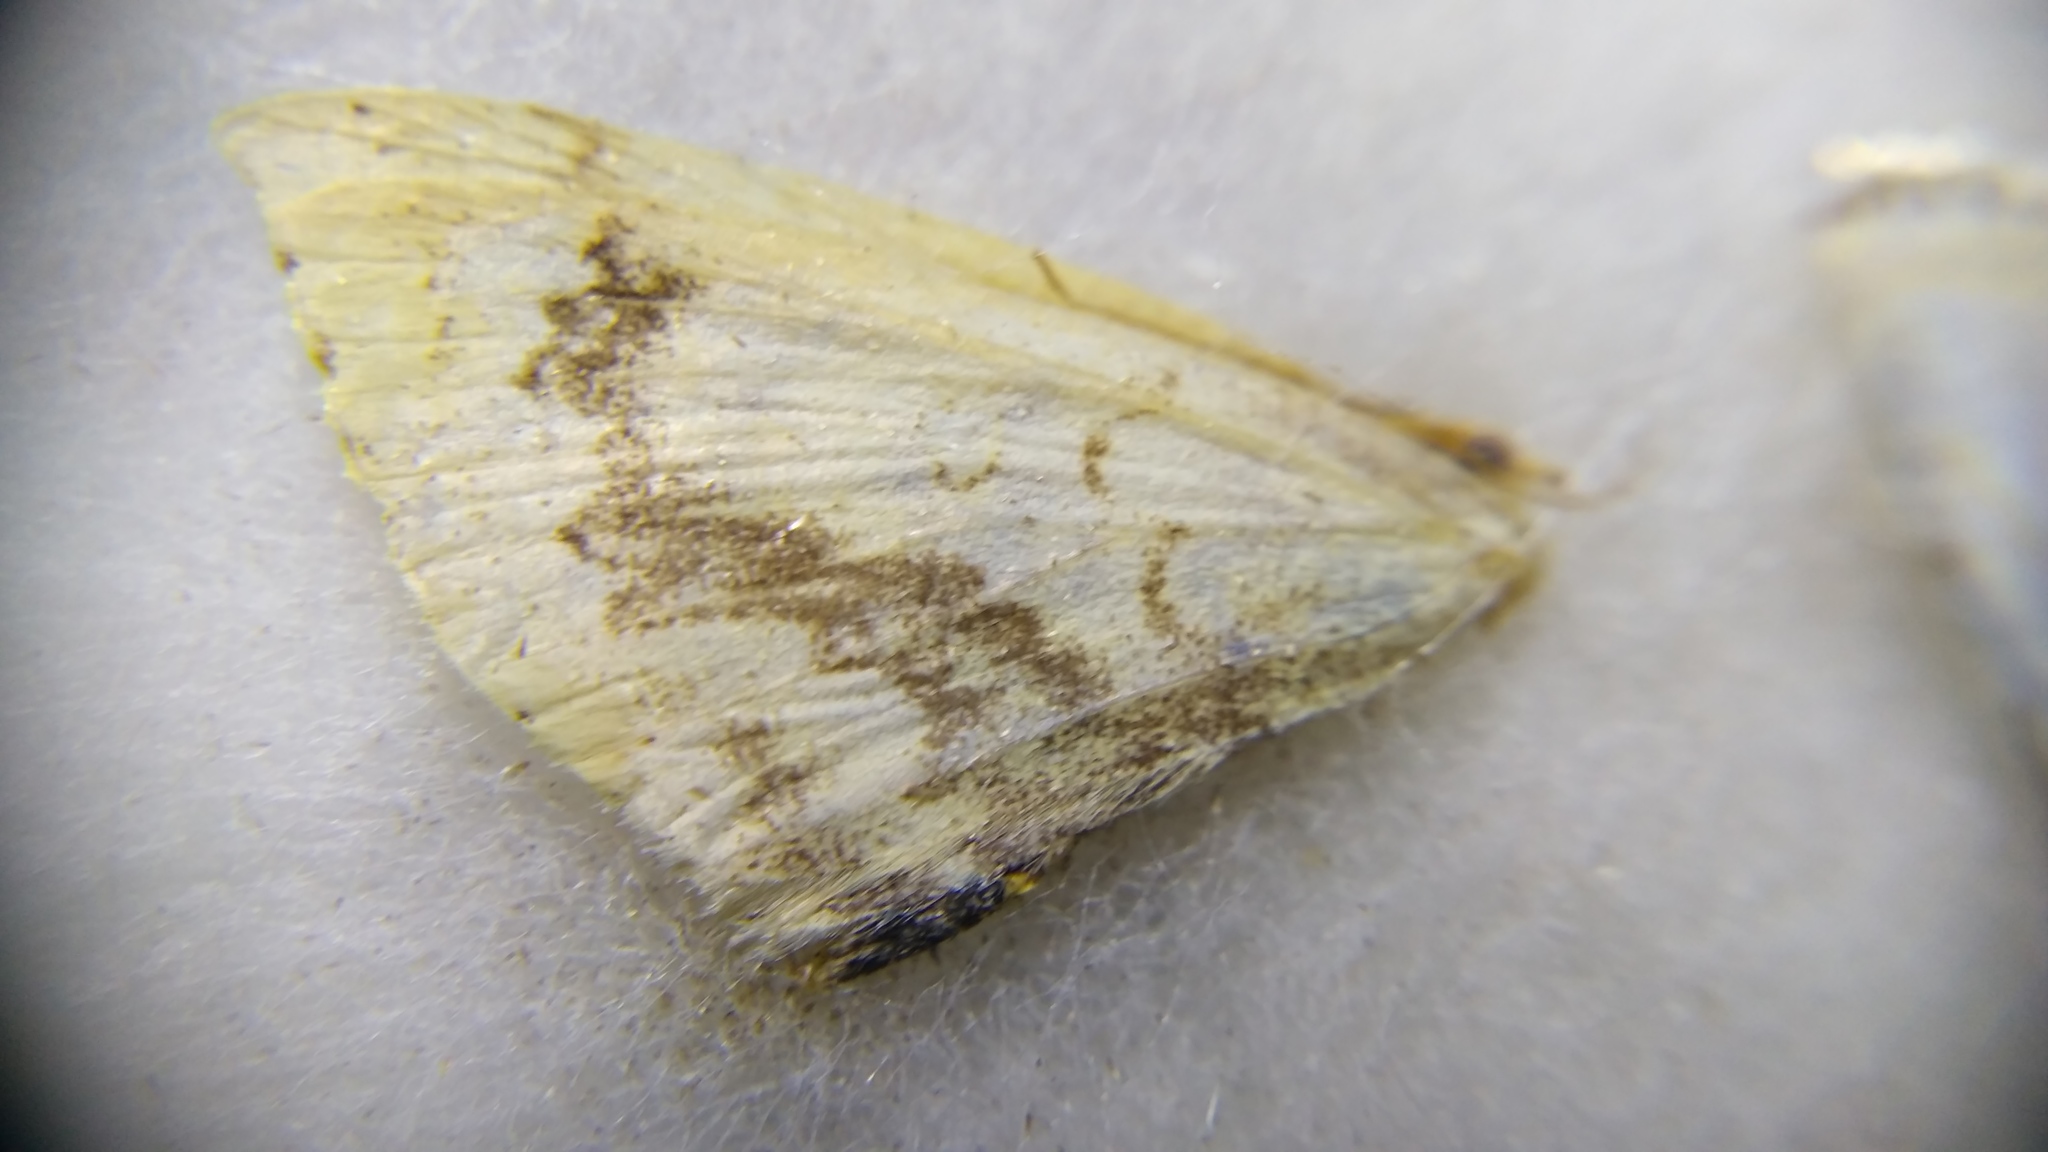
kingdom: Animalia
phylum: Arthropoda
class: Insecta
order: Lepidoptera
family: Geometridae
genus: Cyclophora
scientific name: Cyclophora annularia
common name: Mocha
